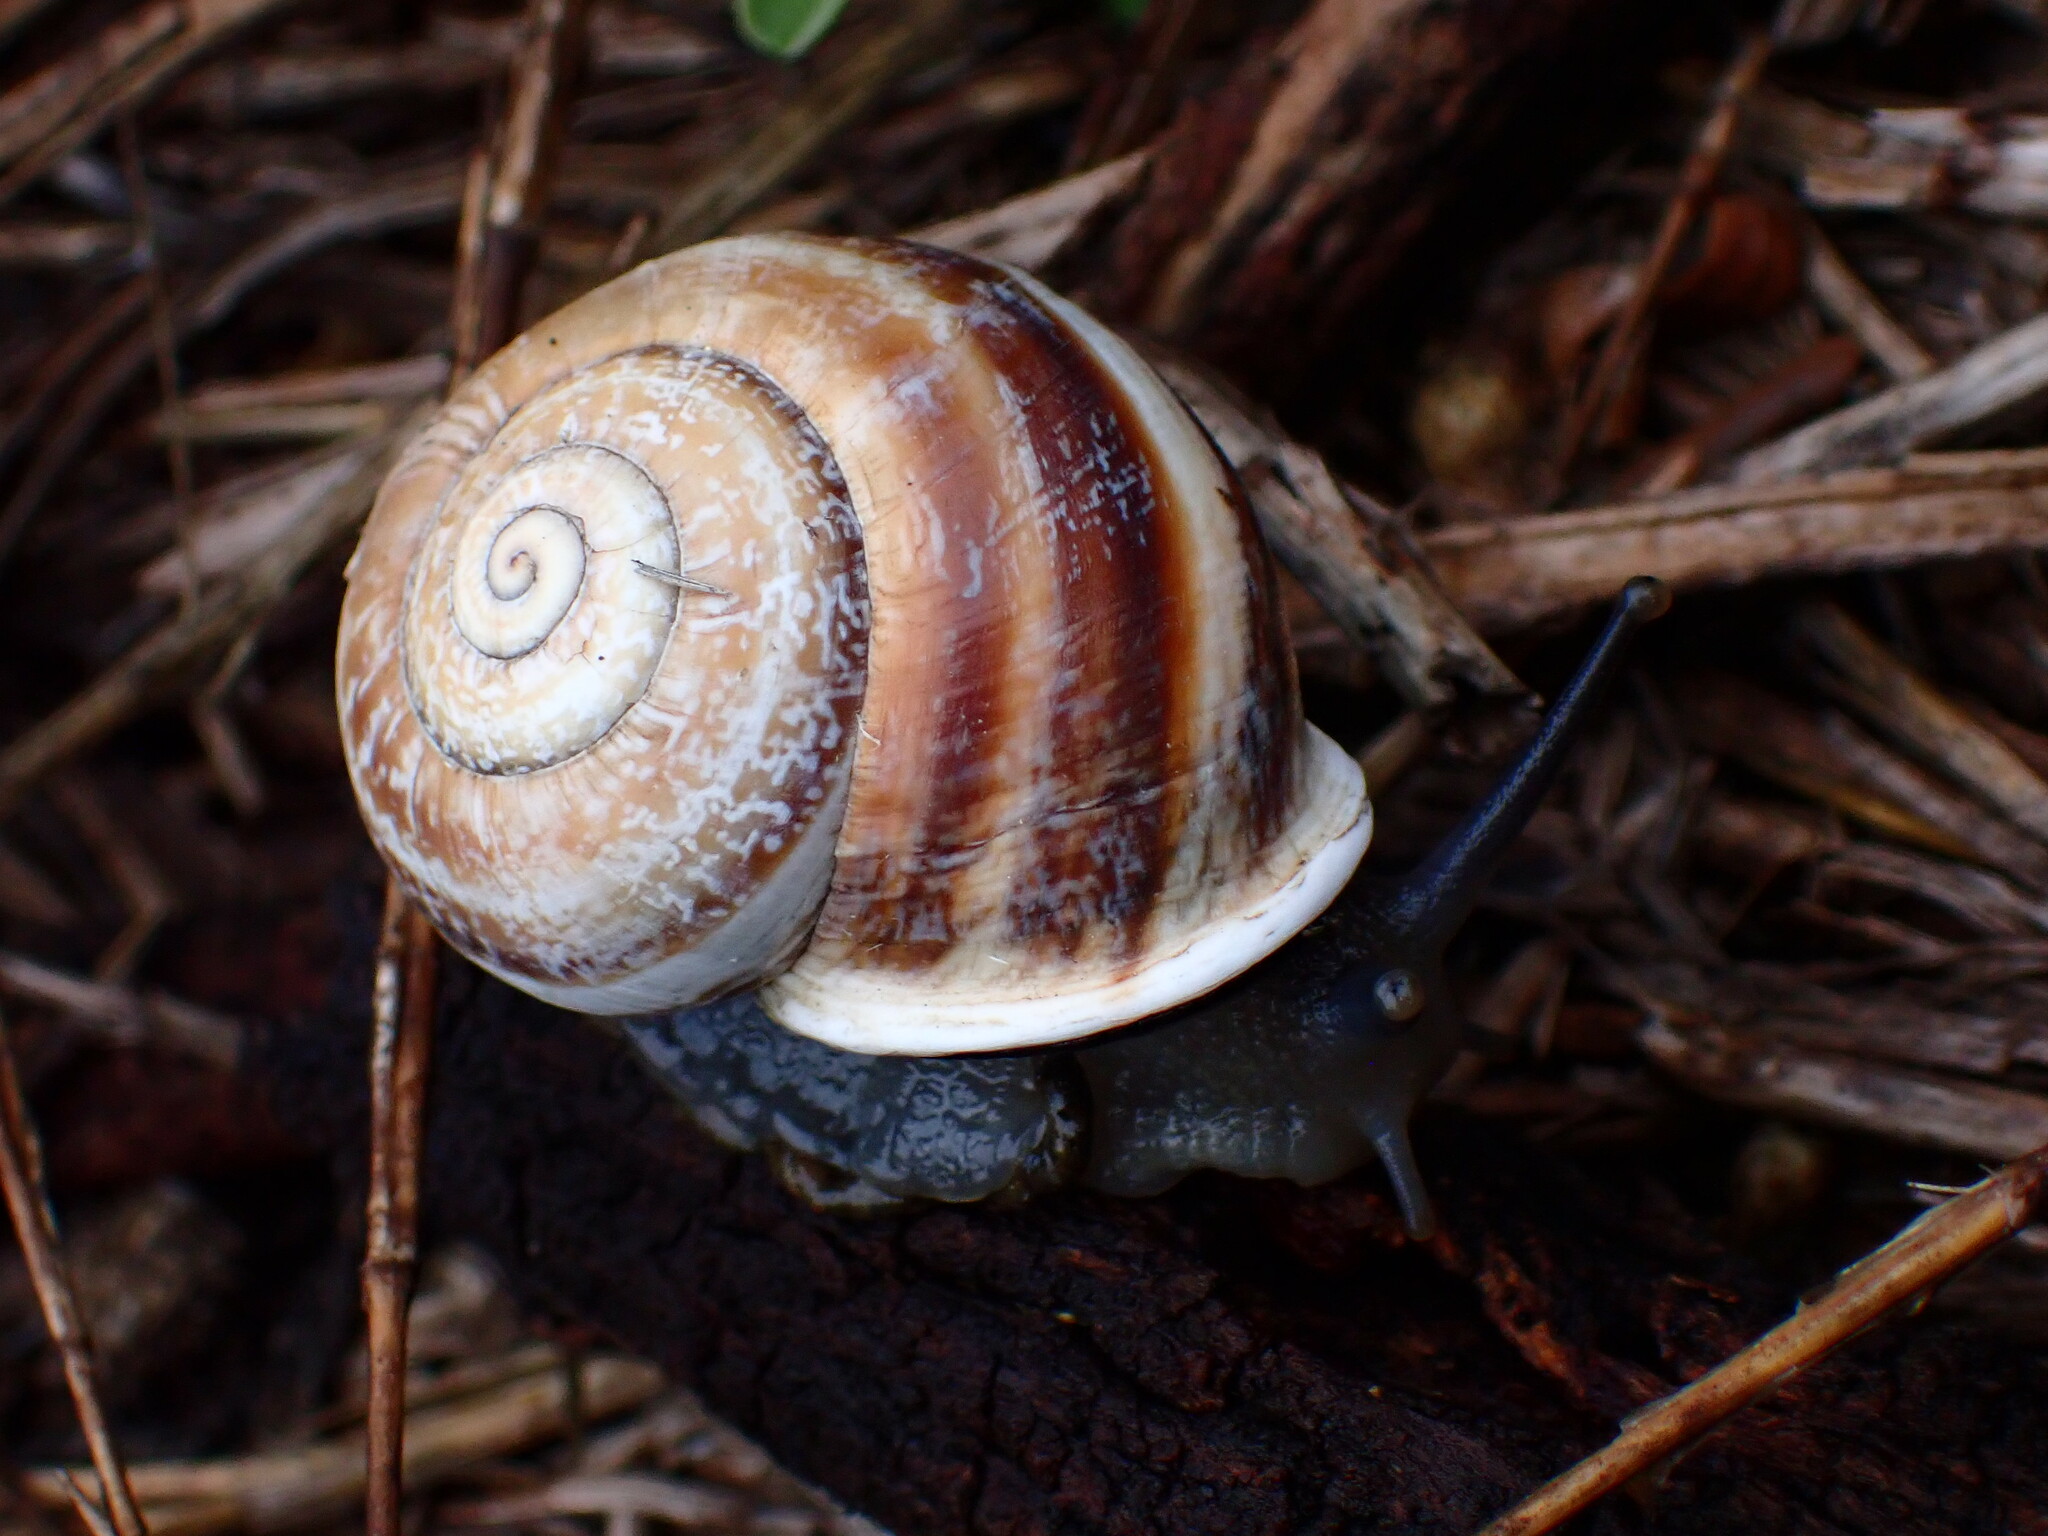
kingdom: Animalia
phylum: Mollusca
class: Gastropoda
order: Stylommatophora
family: Helicidae
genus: Otala
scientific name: Otala lactea
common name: Milk snail
